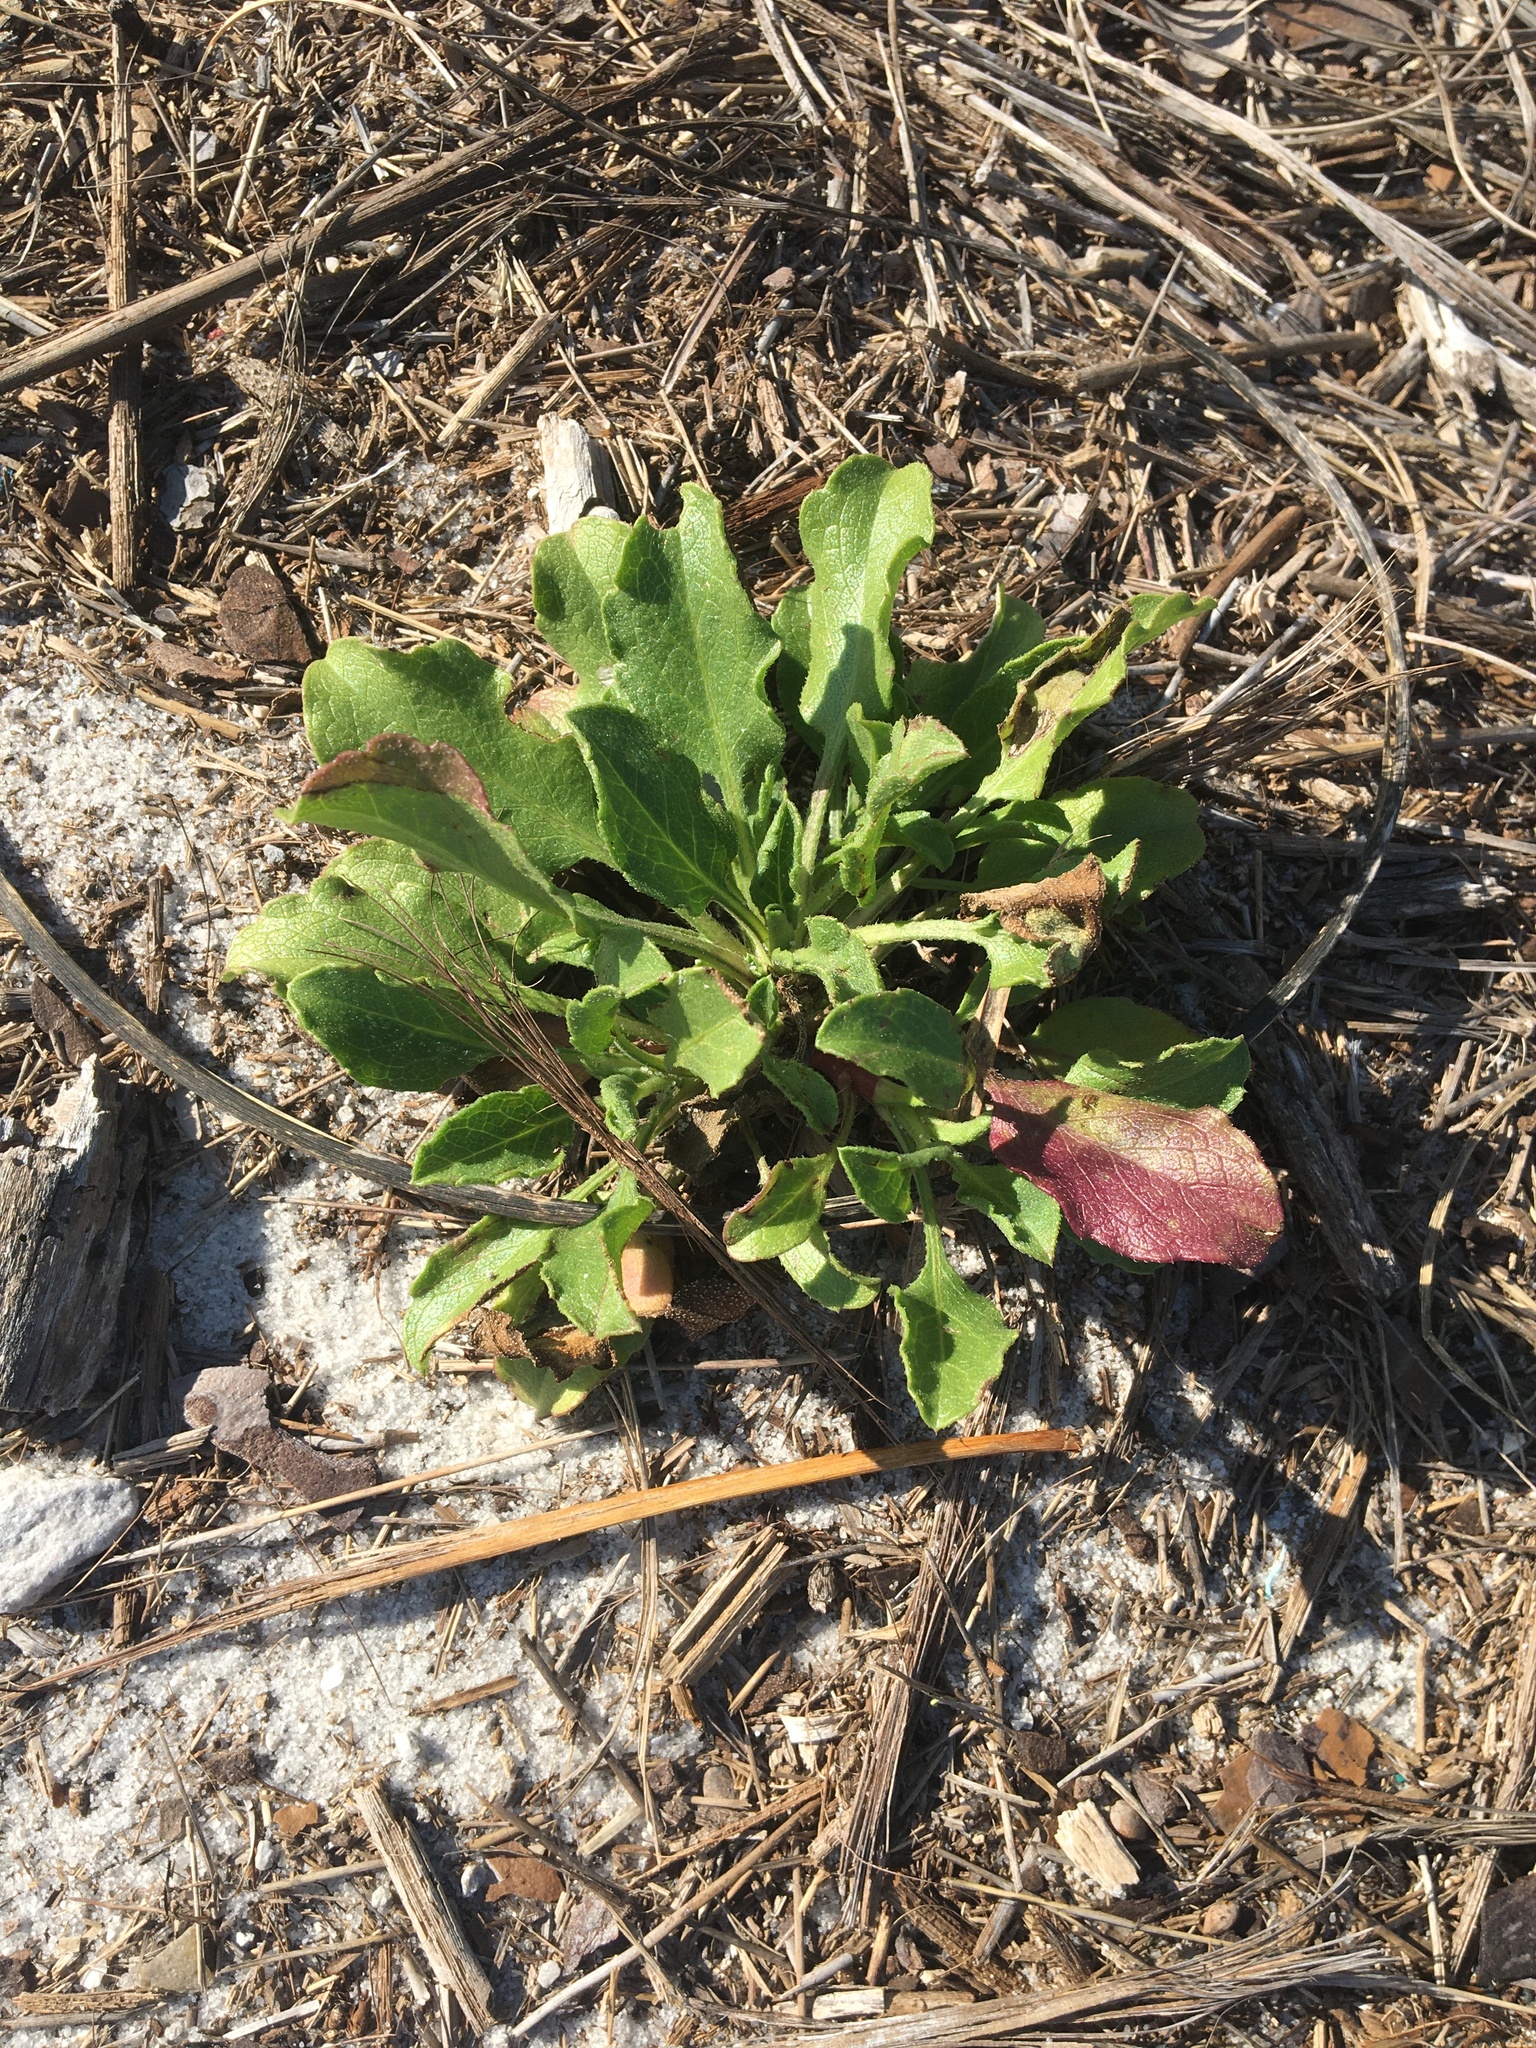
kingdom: Plantae
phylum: Tracheophyta
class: Magnoliopsida
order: Asterales
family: Asteraceae
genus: Heterotheca
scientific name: Heterotheca subaxillaris
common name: Camphorweed
